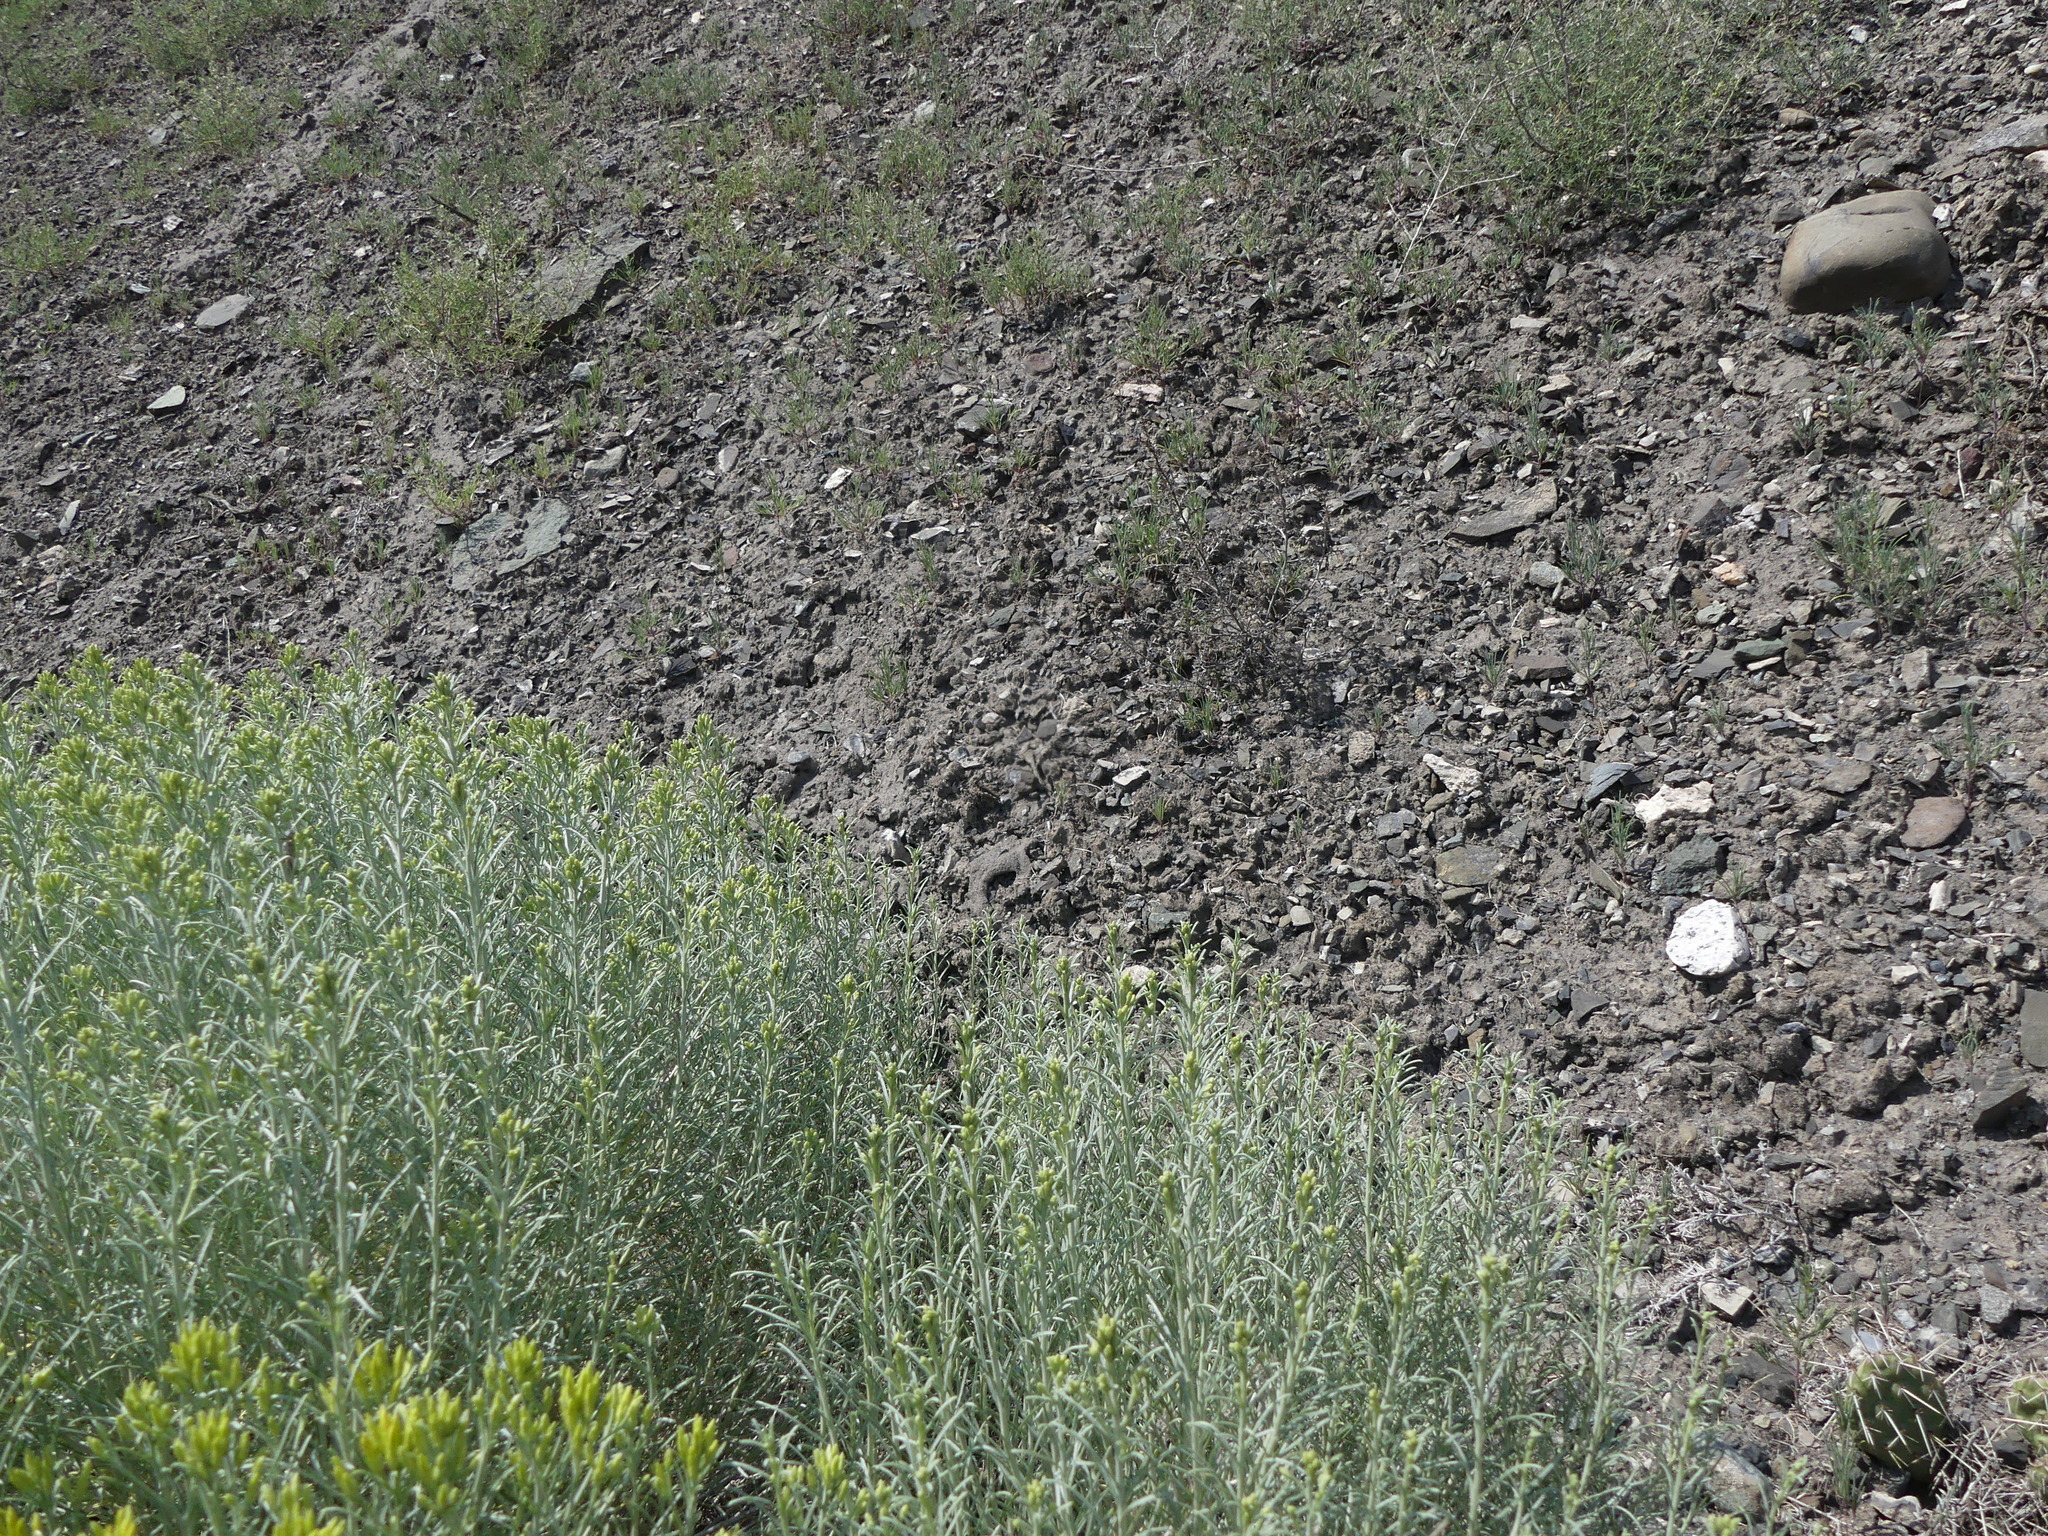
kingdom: Plantae
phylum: Tracheophyta
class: Magnoliopsida
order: Asterales
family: Asteraceae
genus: Ericameria
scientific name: Ericameria nauseosa
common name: Rubber rabbitbrush
